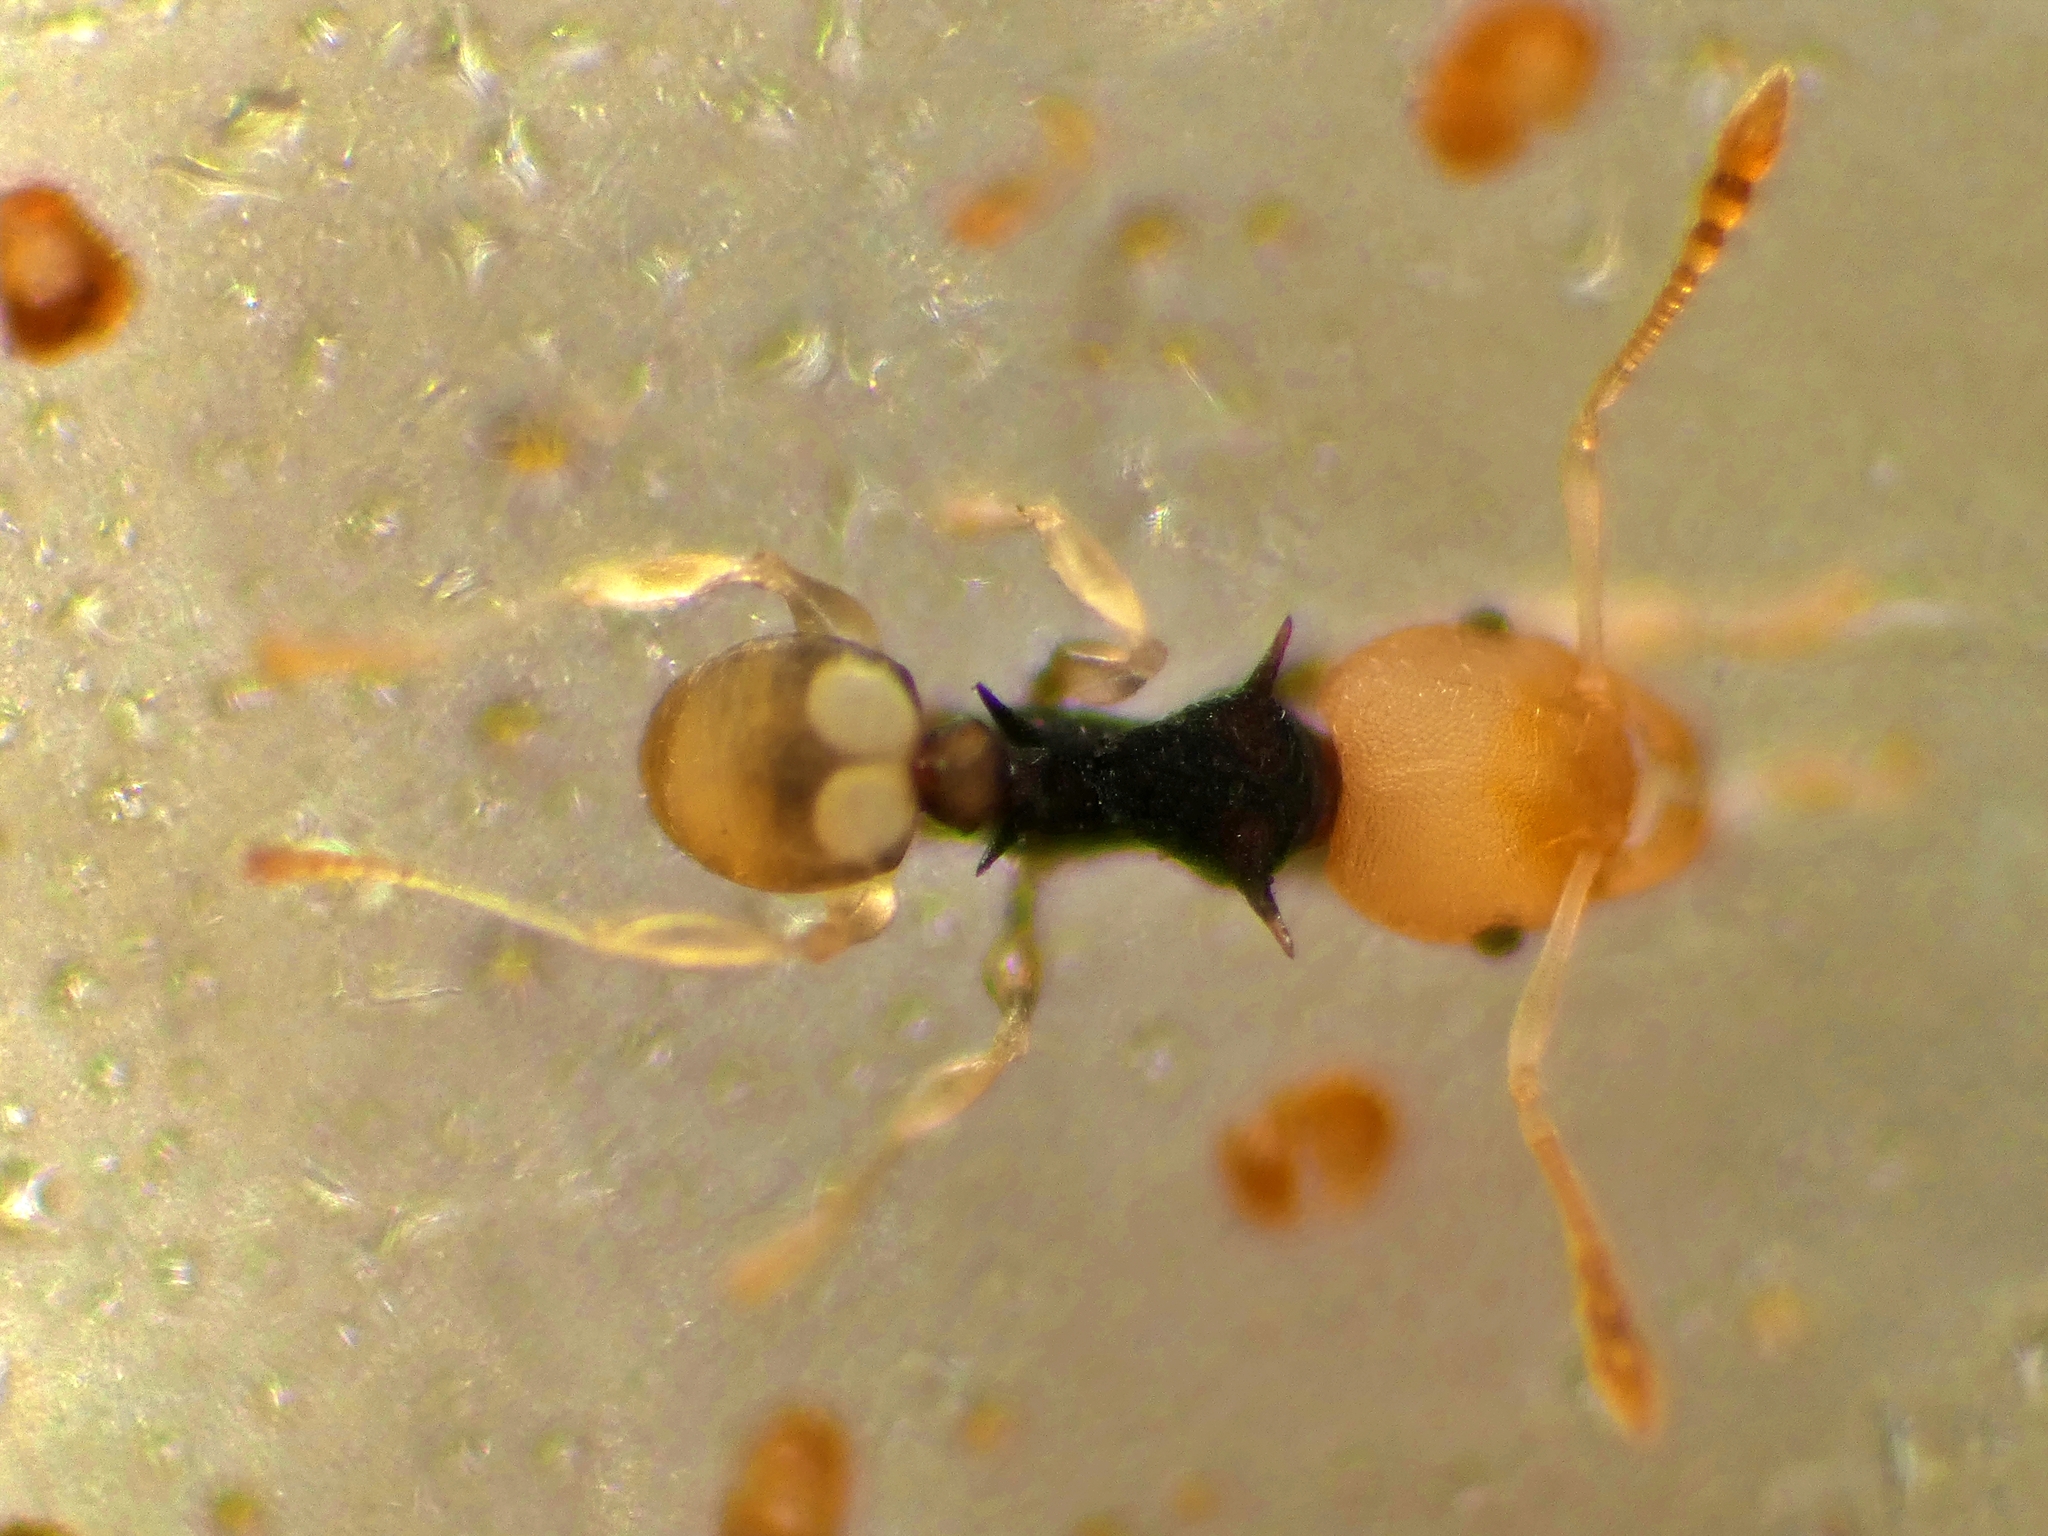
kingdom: Animalia
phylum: Arthropoda
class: Insecta
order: Hymenoptera
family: Formicidae
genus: Pheidole
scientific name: Pheidole
